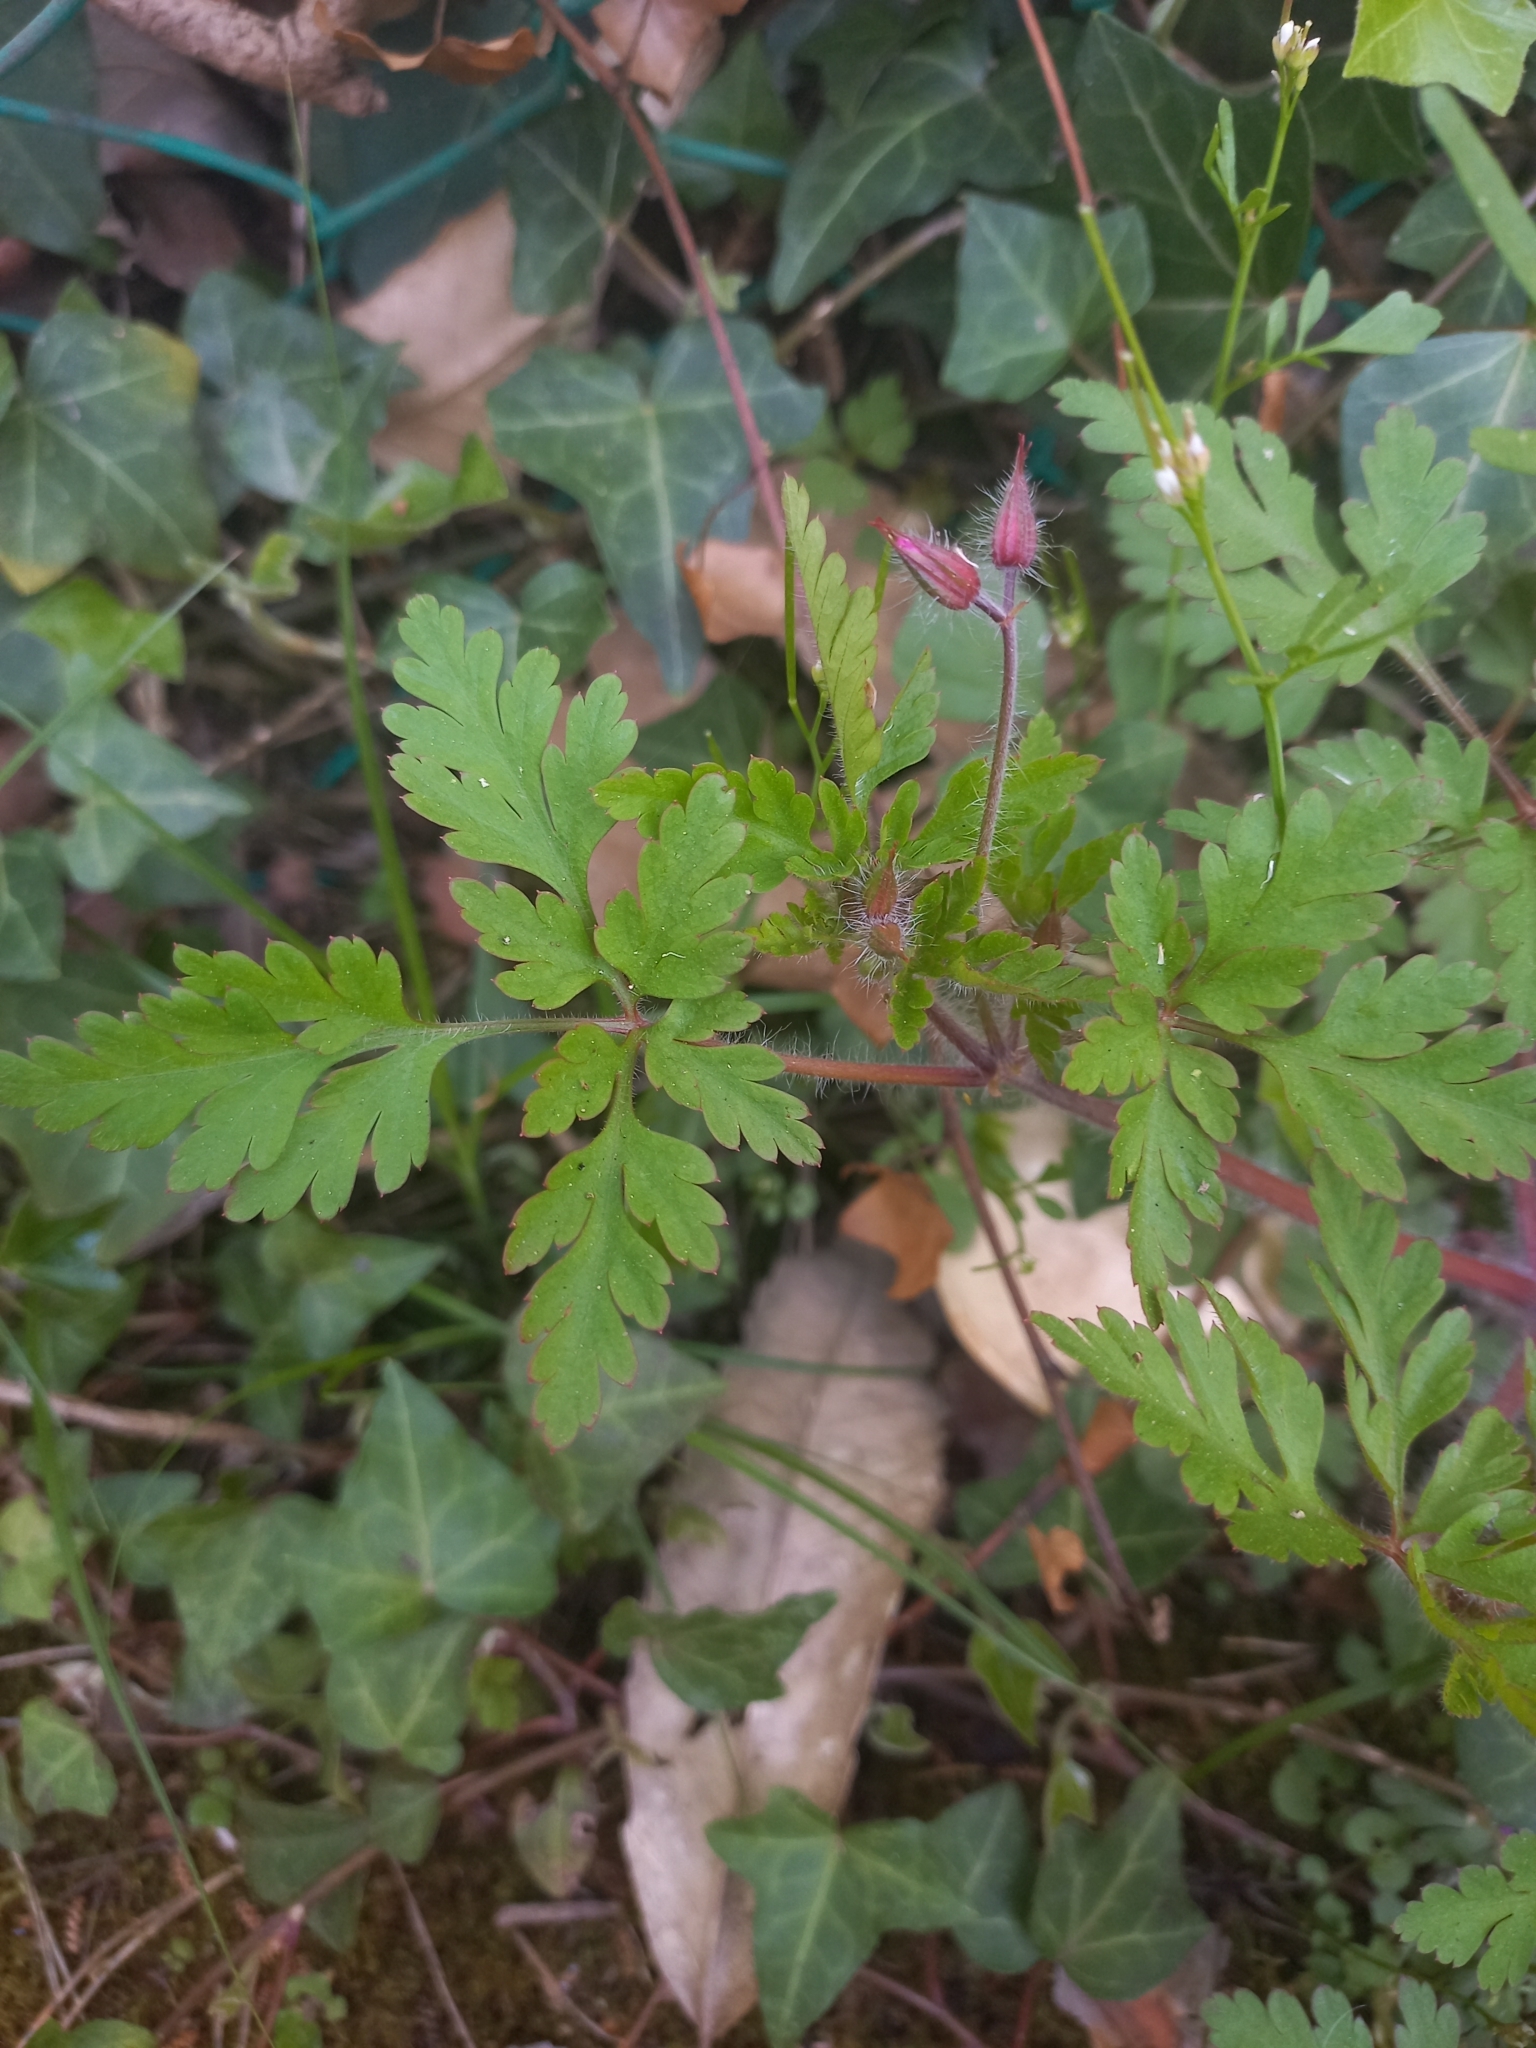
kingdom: Plantae
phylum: Tracheophyta
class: Magnoliopsida
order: Geraniales
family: Geraniaceae
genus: Geranium
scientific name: Geranium robertianum
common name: Herb-robert
